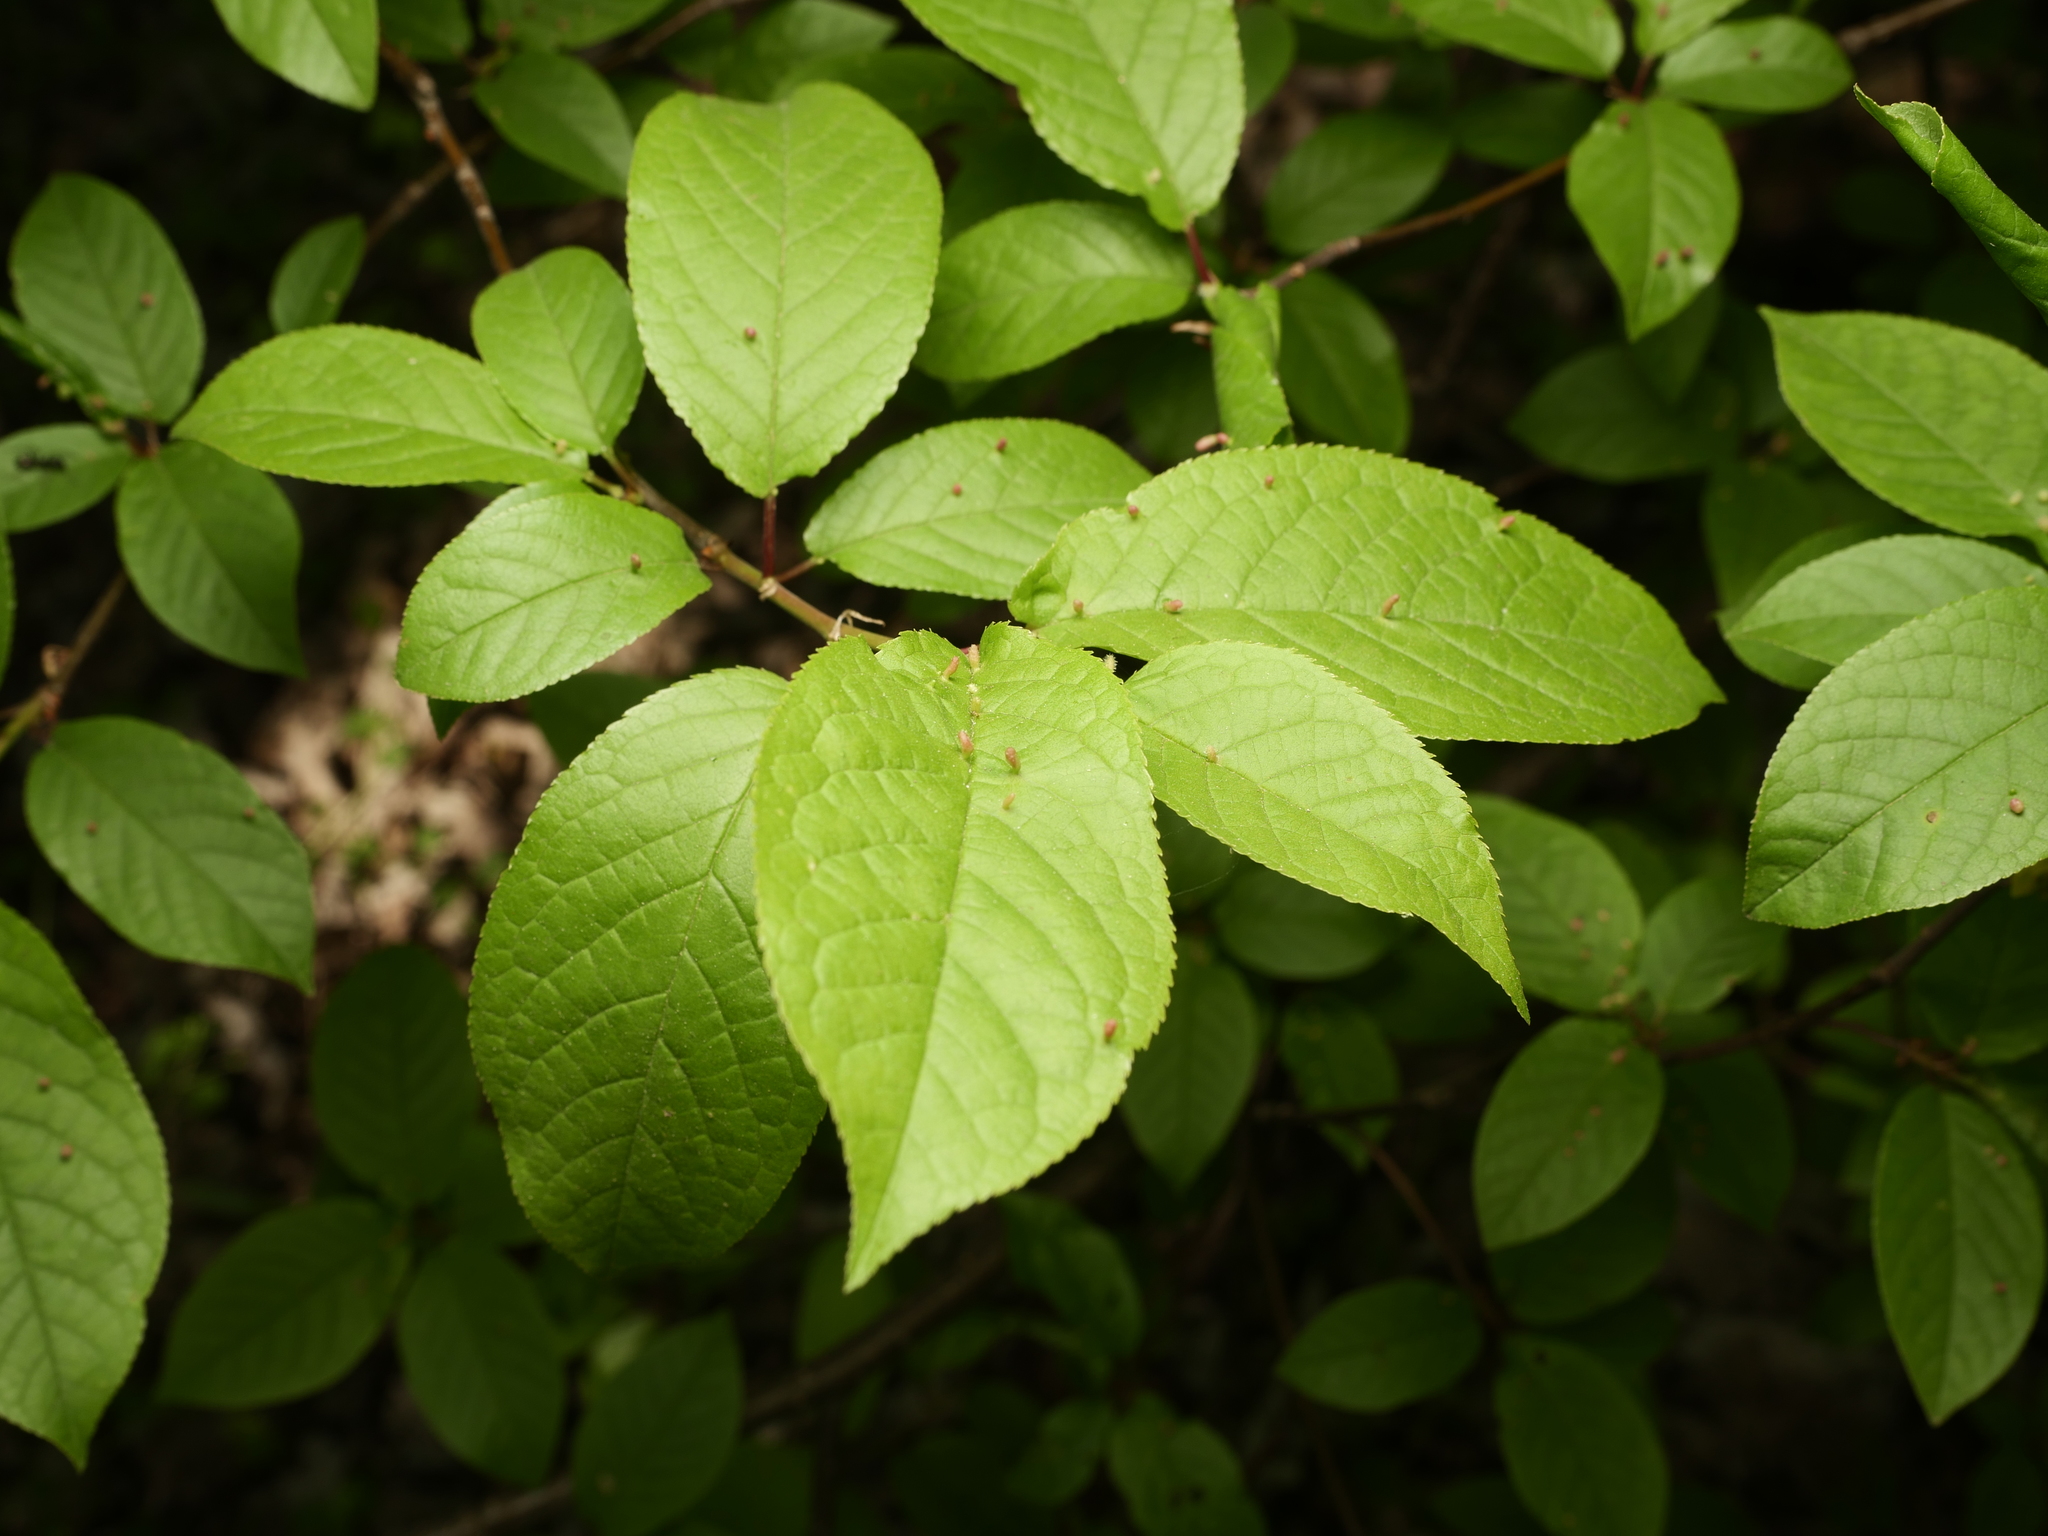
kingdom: Plantae
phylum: Tracheophyta
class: Magnoliopsida
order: Rosales
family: Rosaceae
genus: Prunus
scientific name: Prunus padus
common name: Bird cherry
